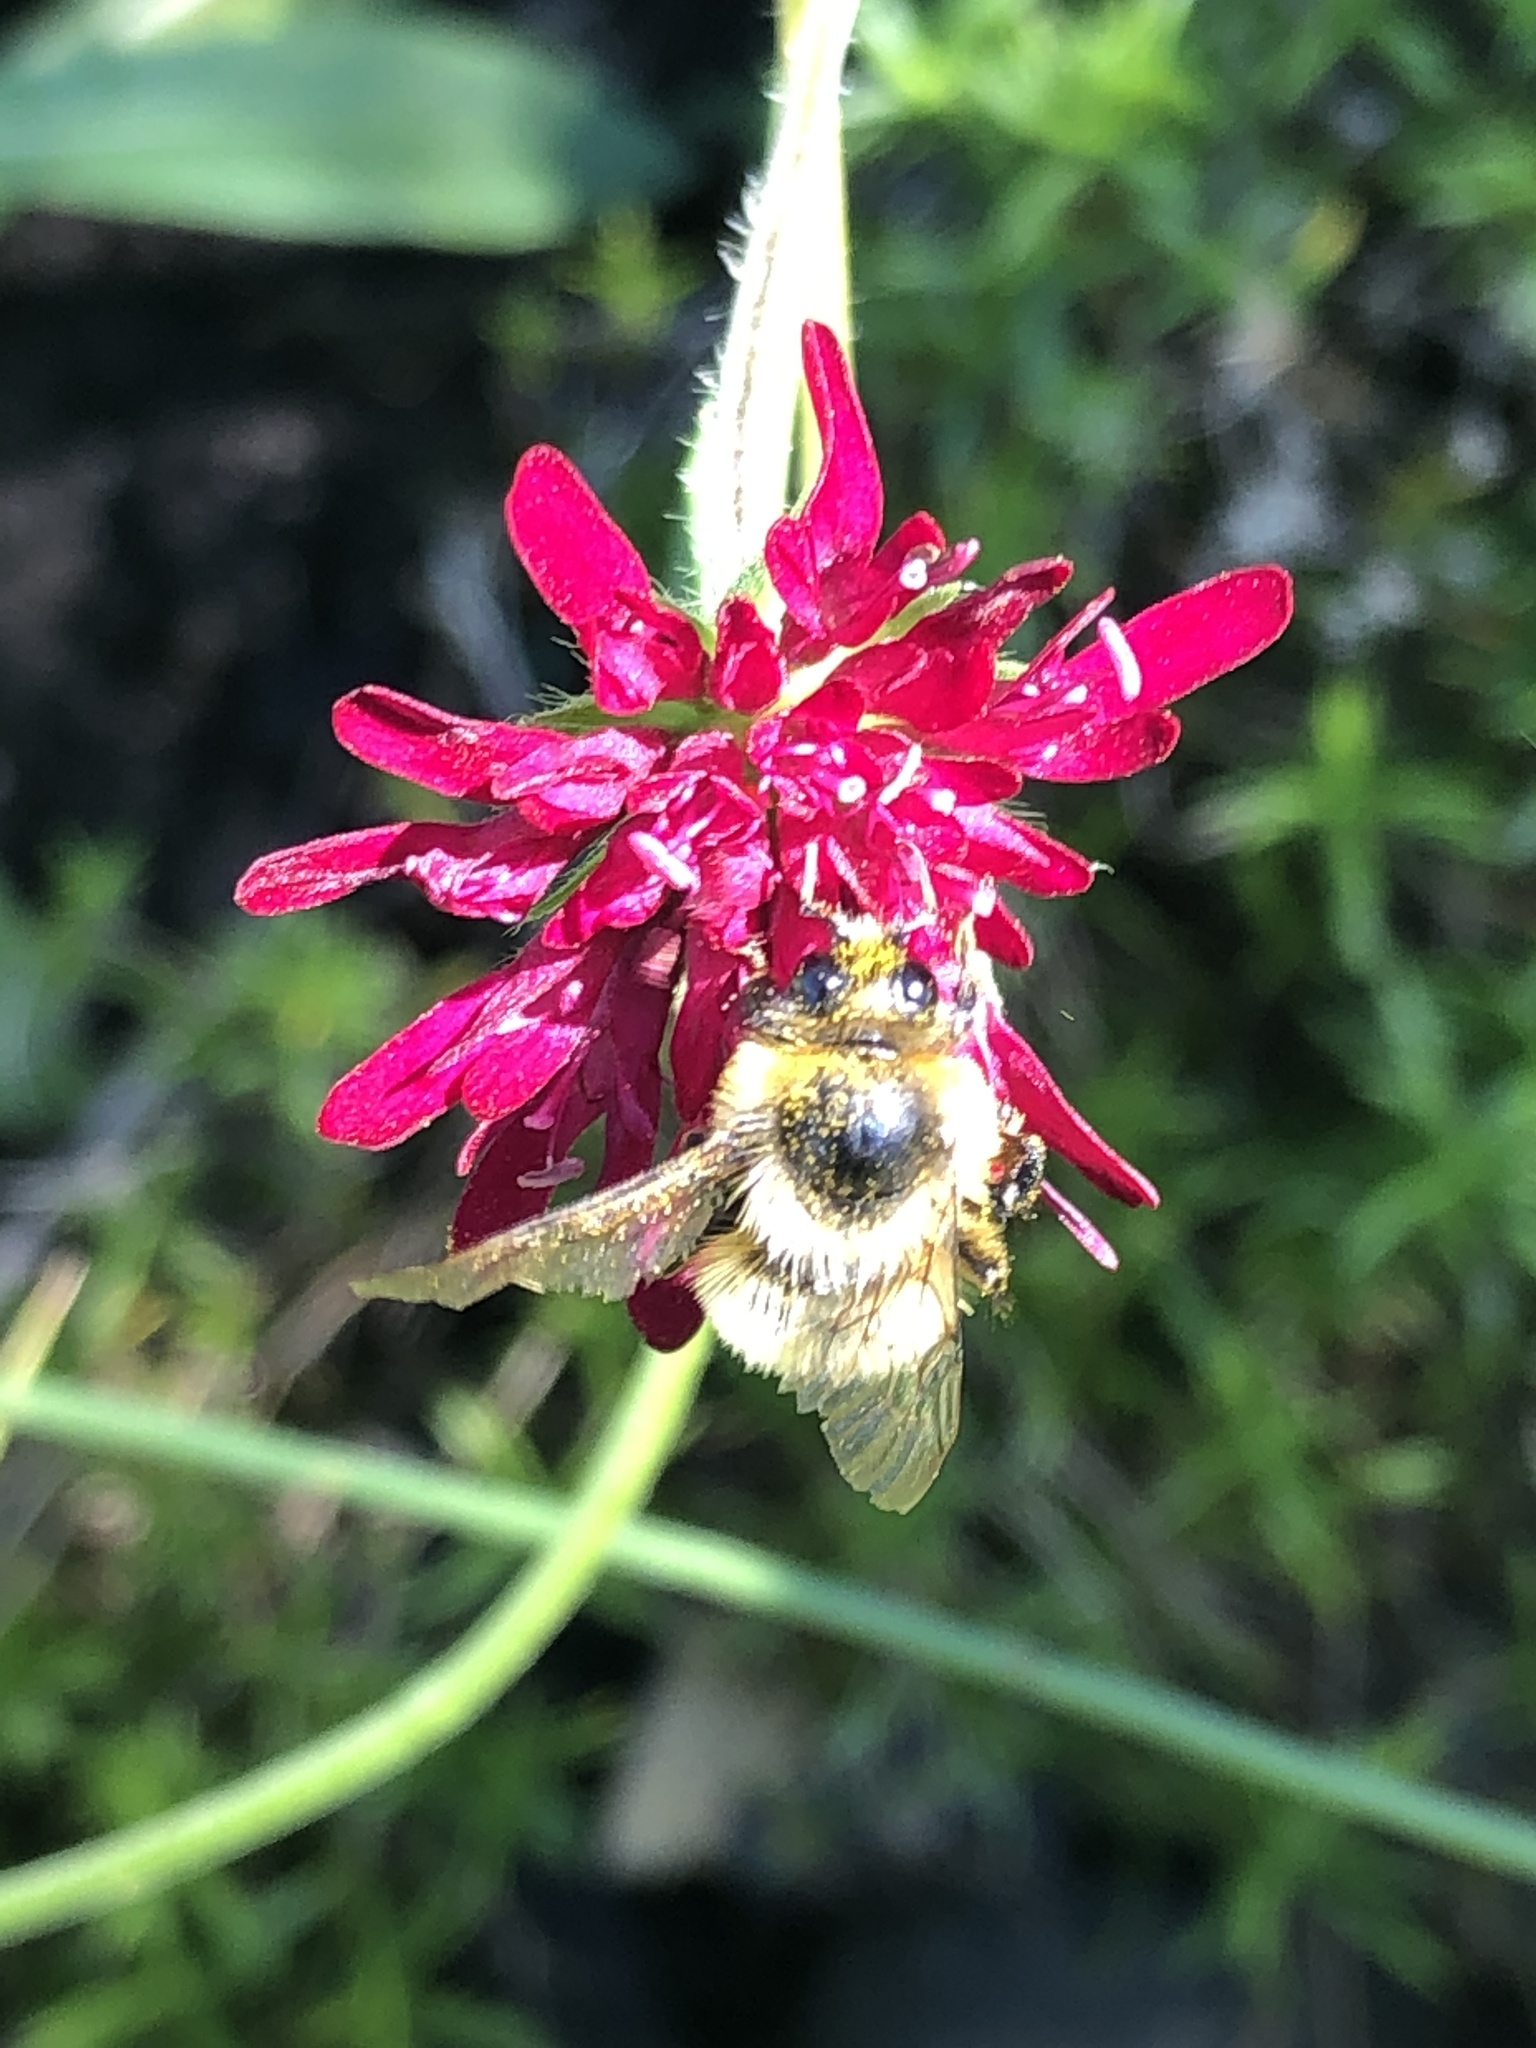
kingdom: Animalia
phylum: Arthropoda
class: Insecta
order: Hymenoptera
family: Apidae
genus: Bombus
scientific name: Bombus griseocollis
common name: Brown-belted bumble bee
